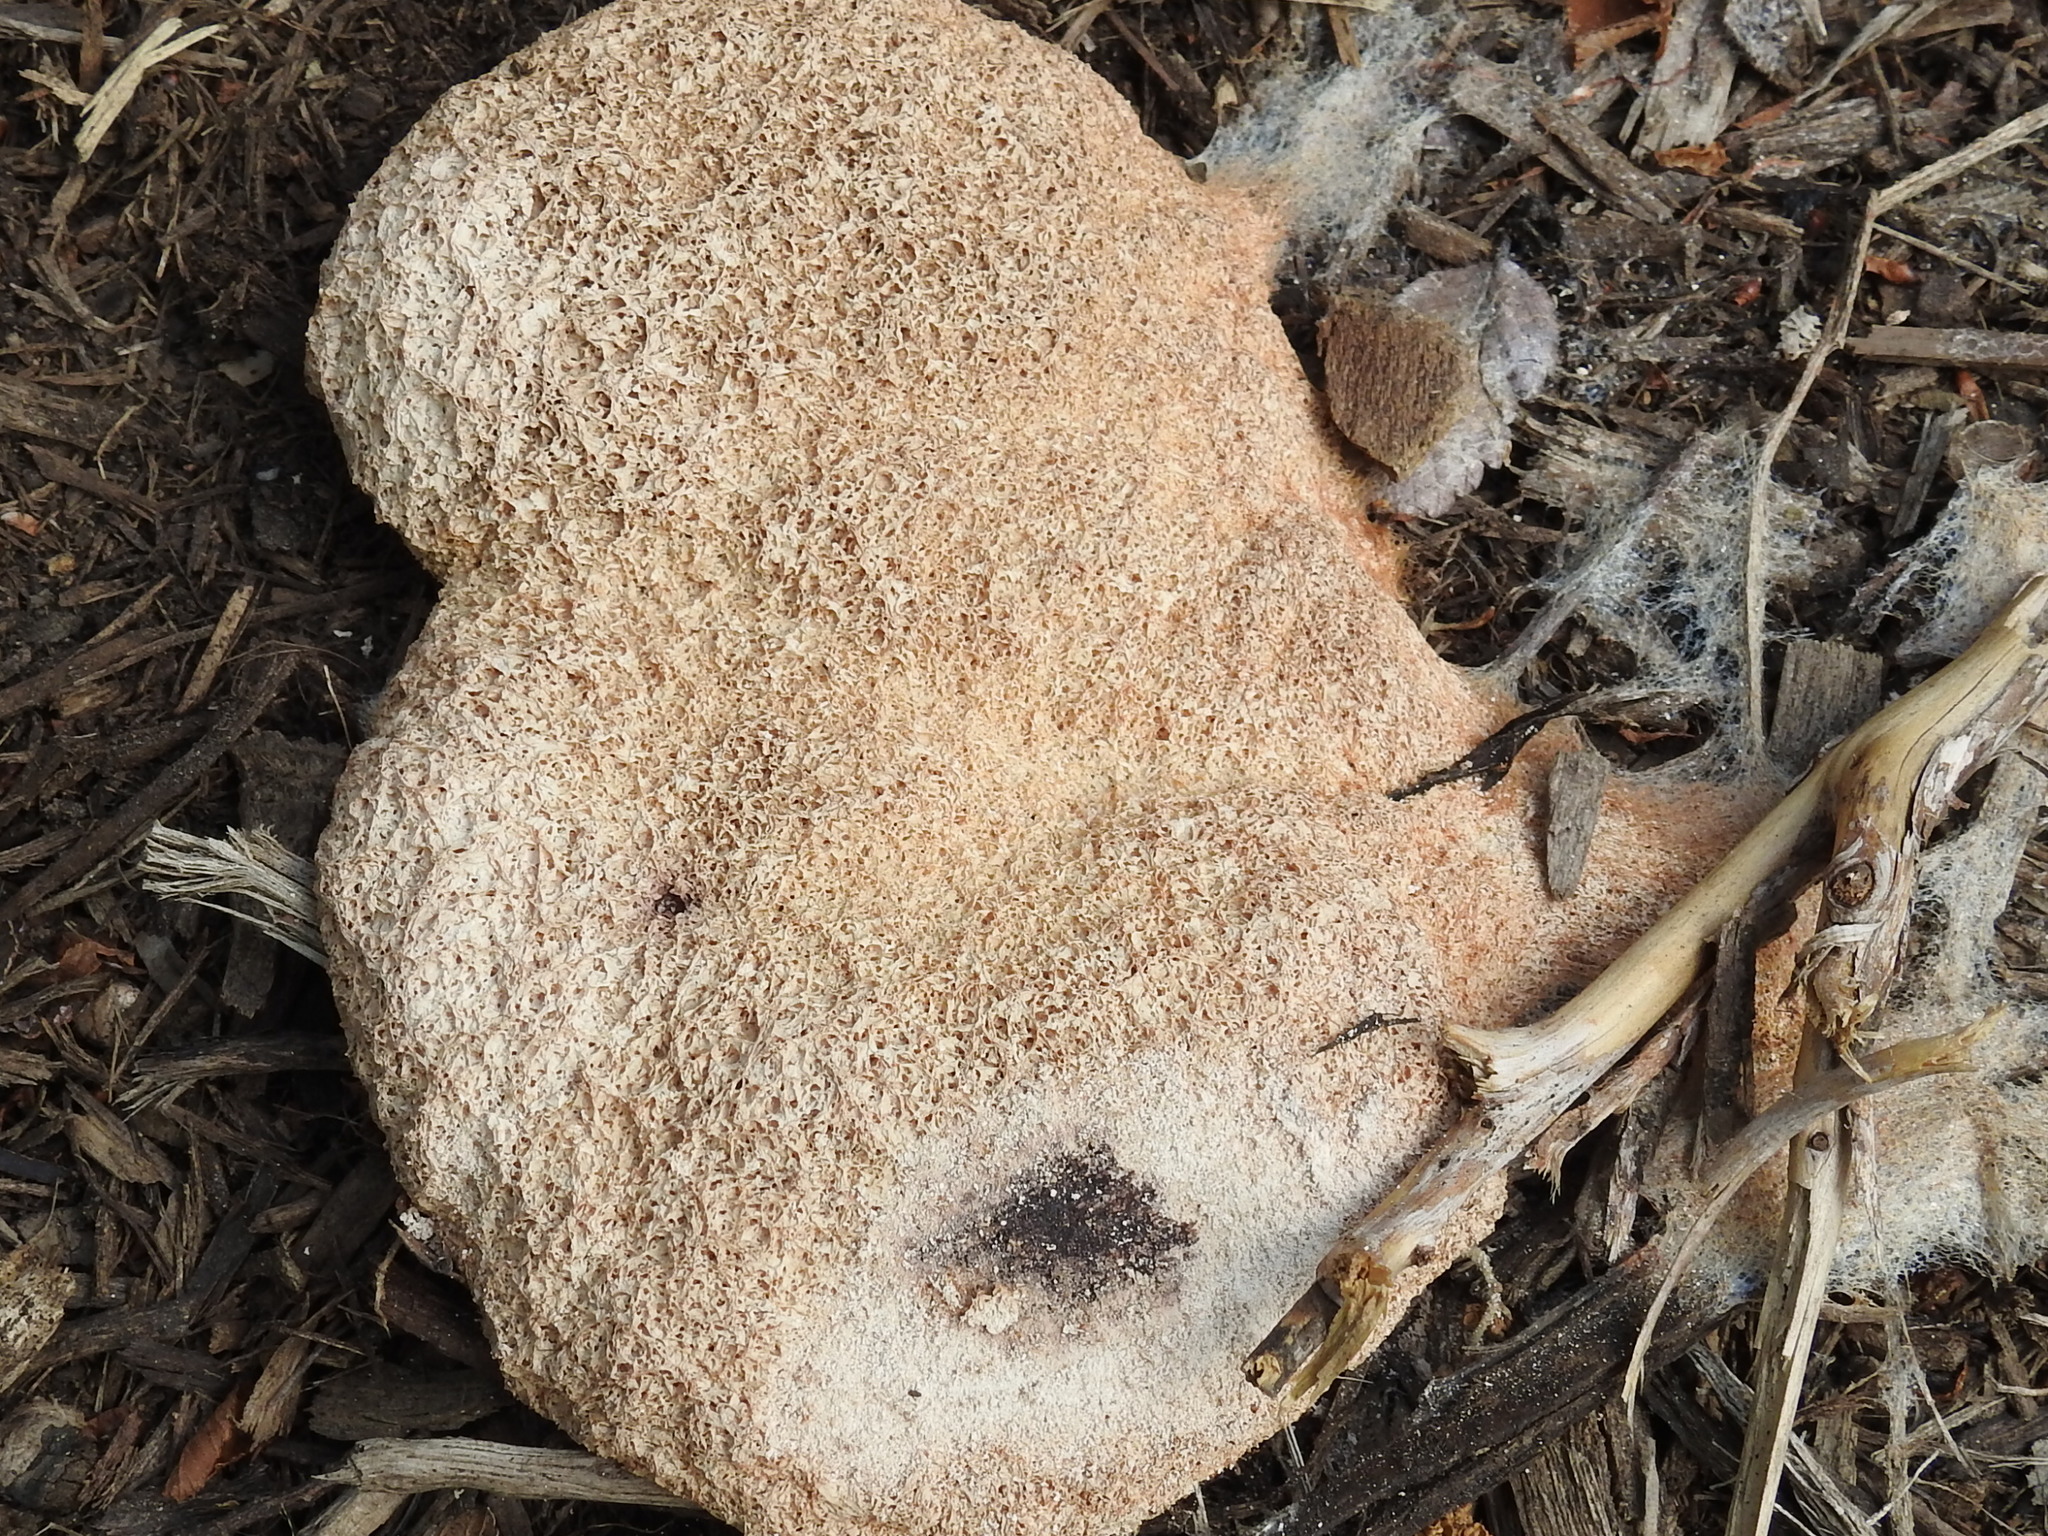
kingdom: Protozoa
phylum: Mycetozoa
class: Myxomycetes
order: Physarales
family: Physaraceae
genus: Fuligo
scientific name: Fuligo septica
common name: Dog vomit slime mold
